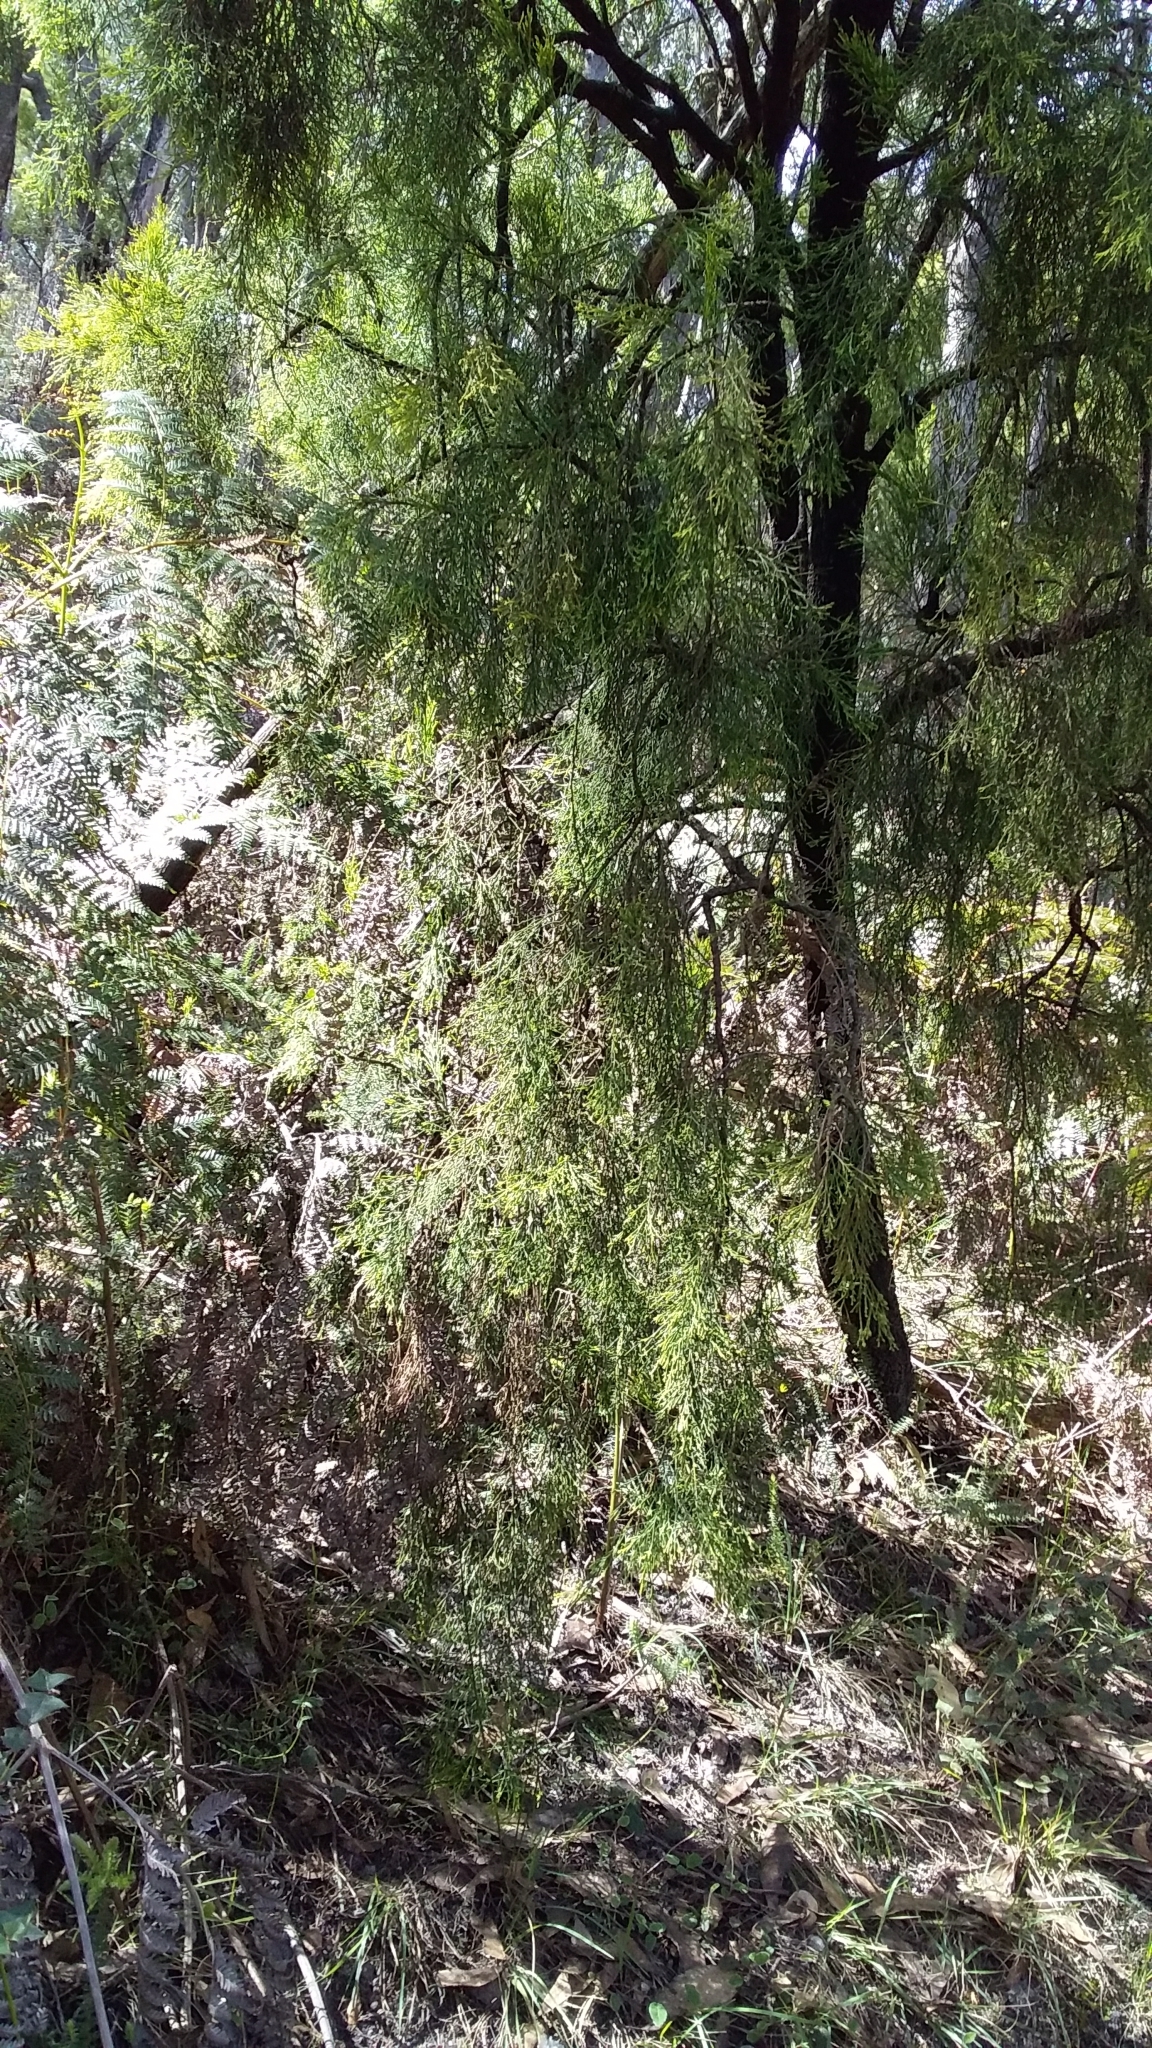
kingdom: Plantae
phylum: Tracheophyta
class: Magnoliopsida
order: Santalales
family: Santalaceae
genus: Exocarpos
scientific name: Exocarpos cupressiformis
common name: Cherry ballart
